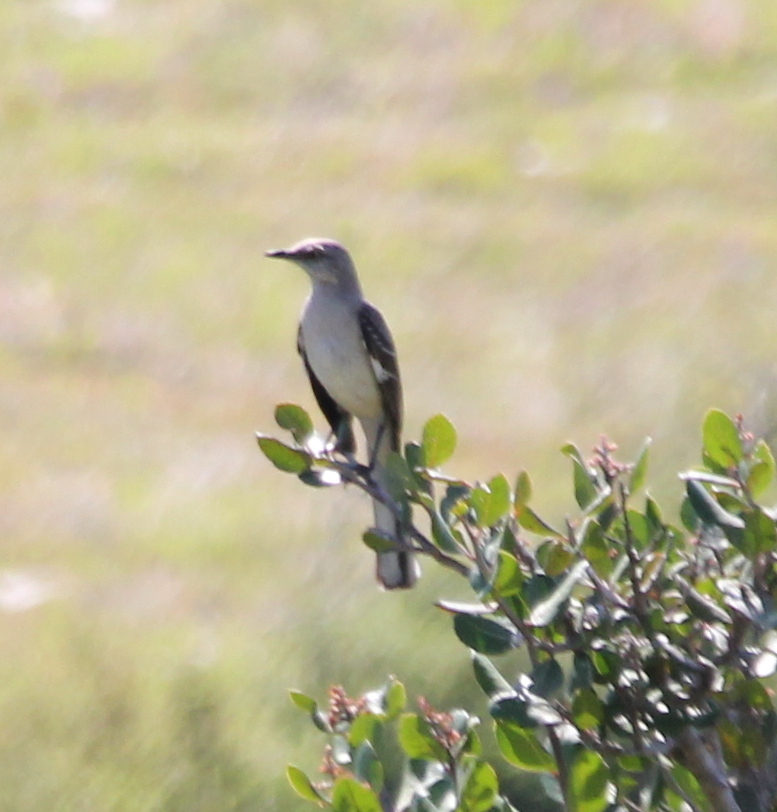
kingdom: Animalia
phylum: Chordata
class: Aves
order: Passeriformes
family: Mimidae
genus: Mimus
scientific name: Mimus polyglottos
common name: Northern mockingbird
